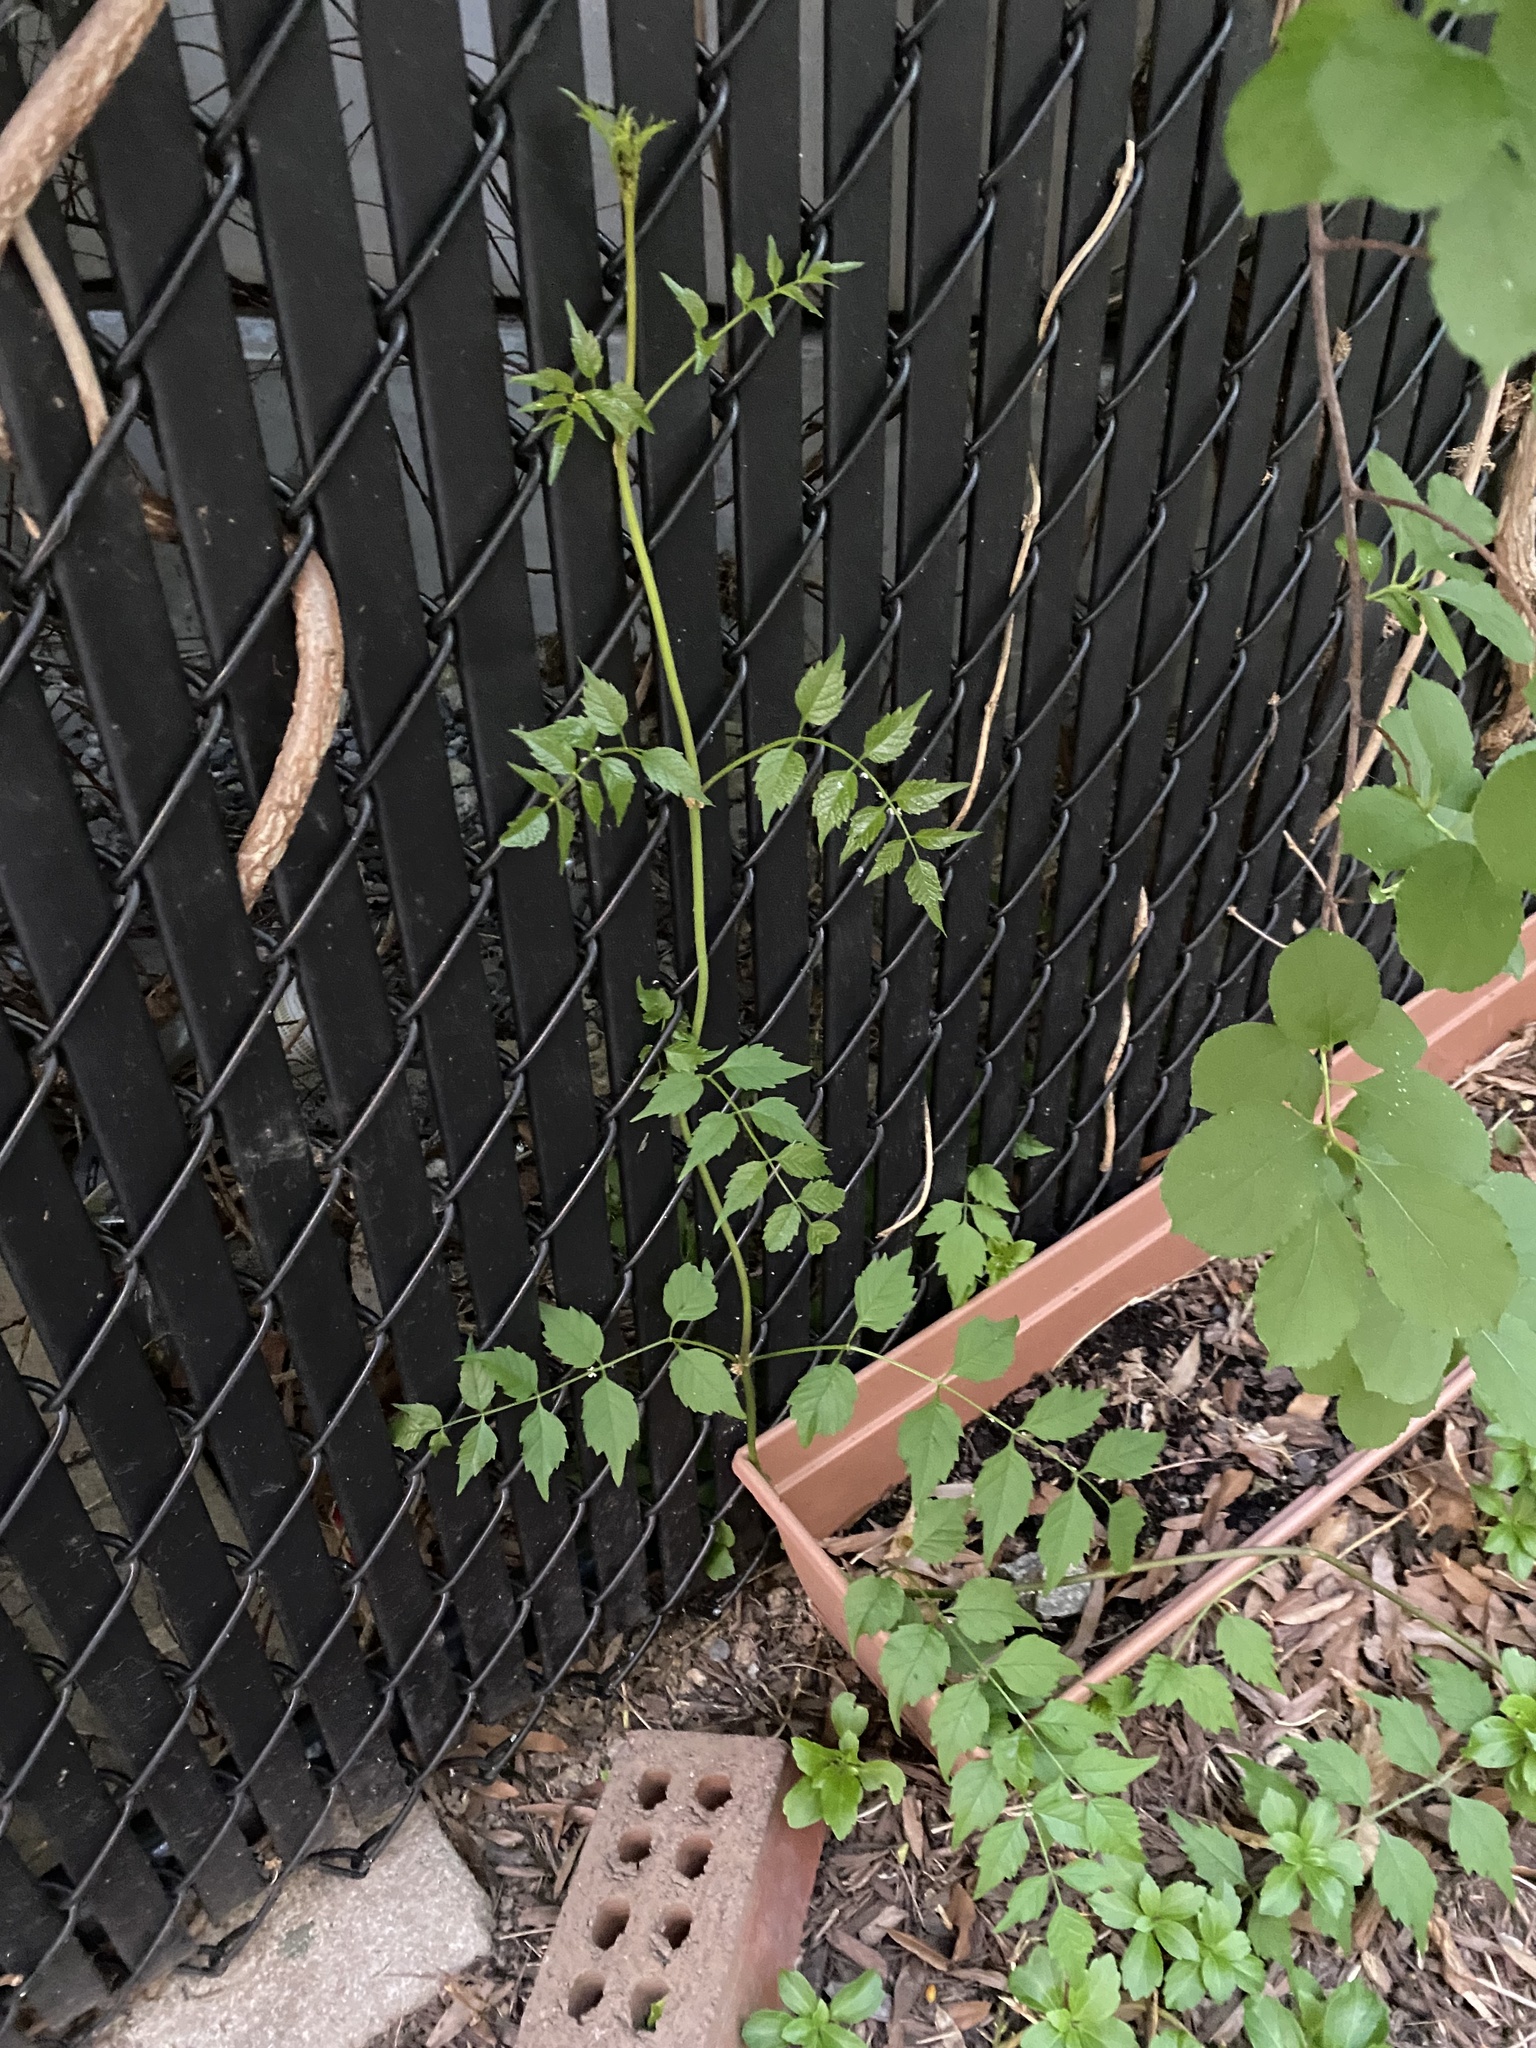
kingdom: Plantae
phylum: Tracheophyta
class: Magnoliopsida
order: Lamiales
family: Bignoniaceae
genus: Campsis
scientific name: Campsis radicans
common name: Trumpet-creeper
